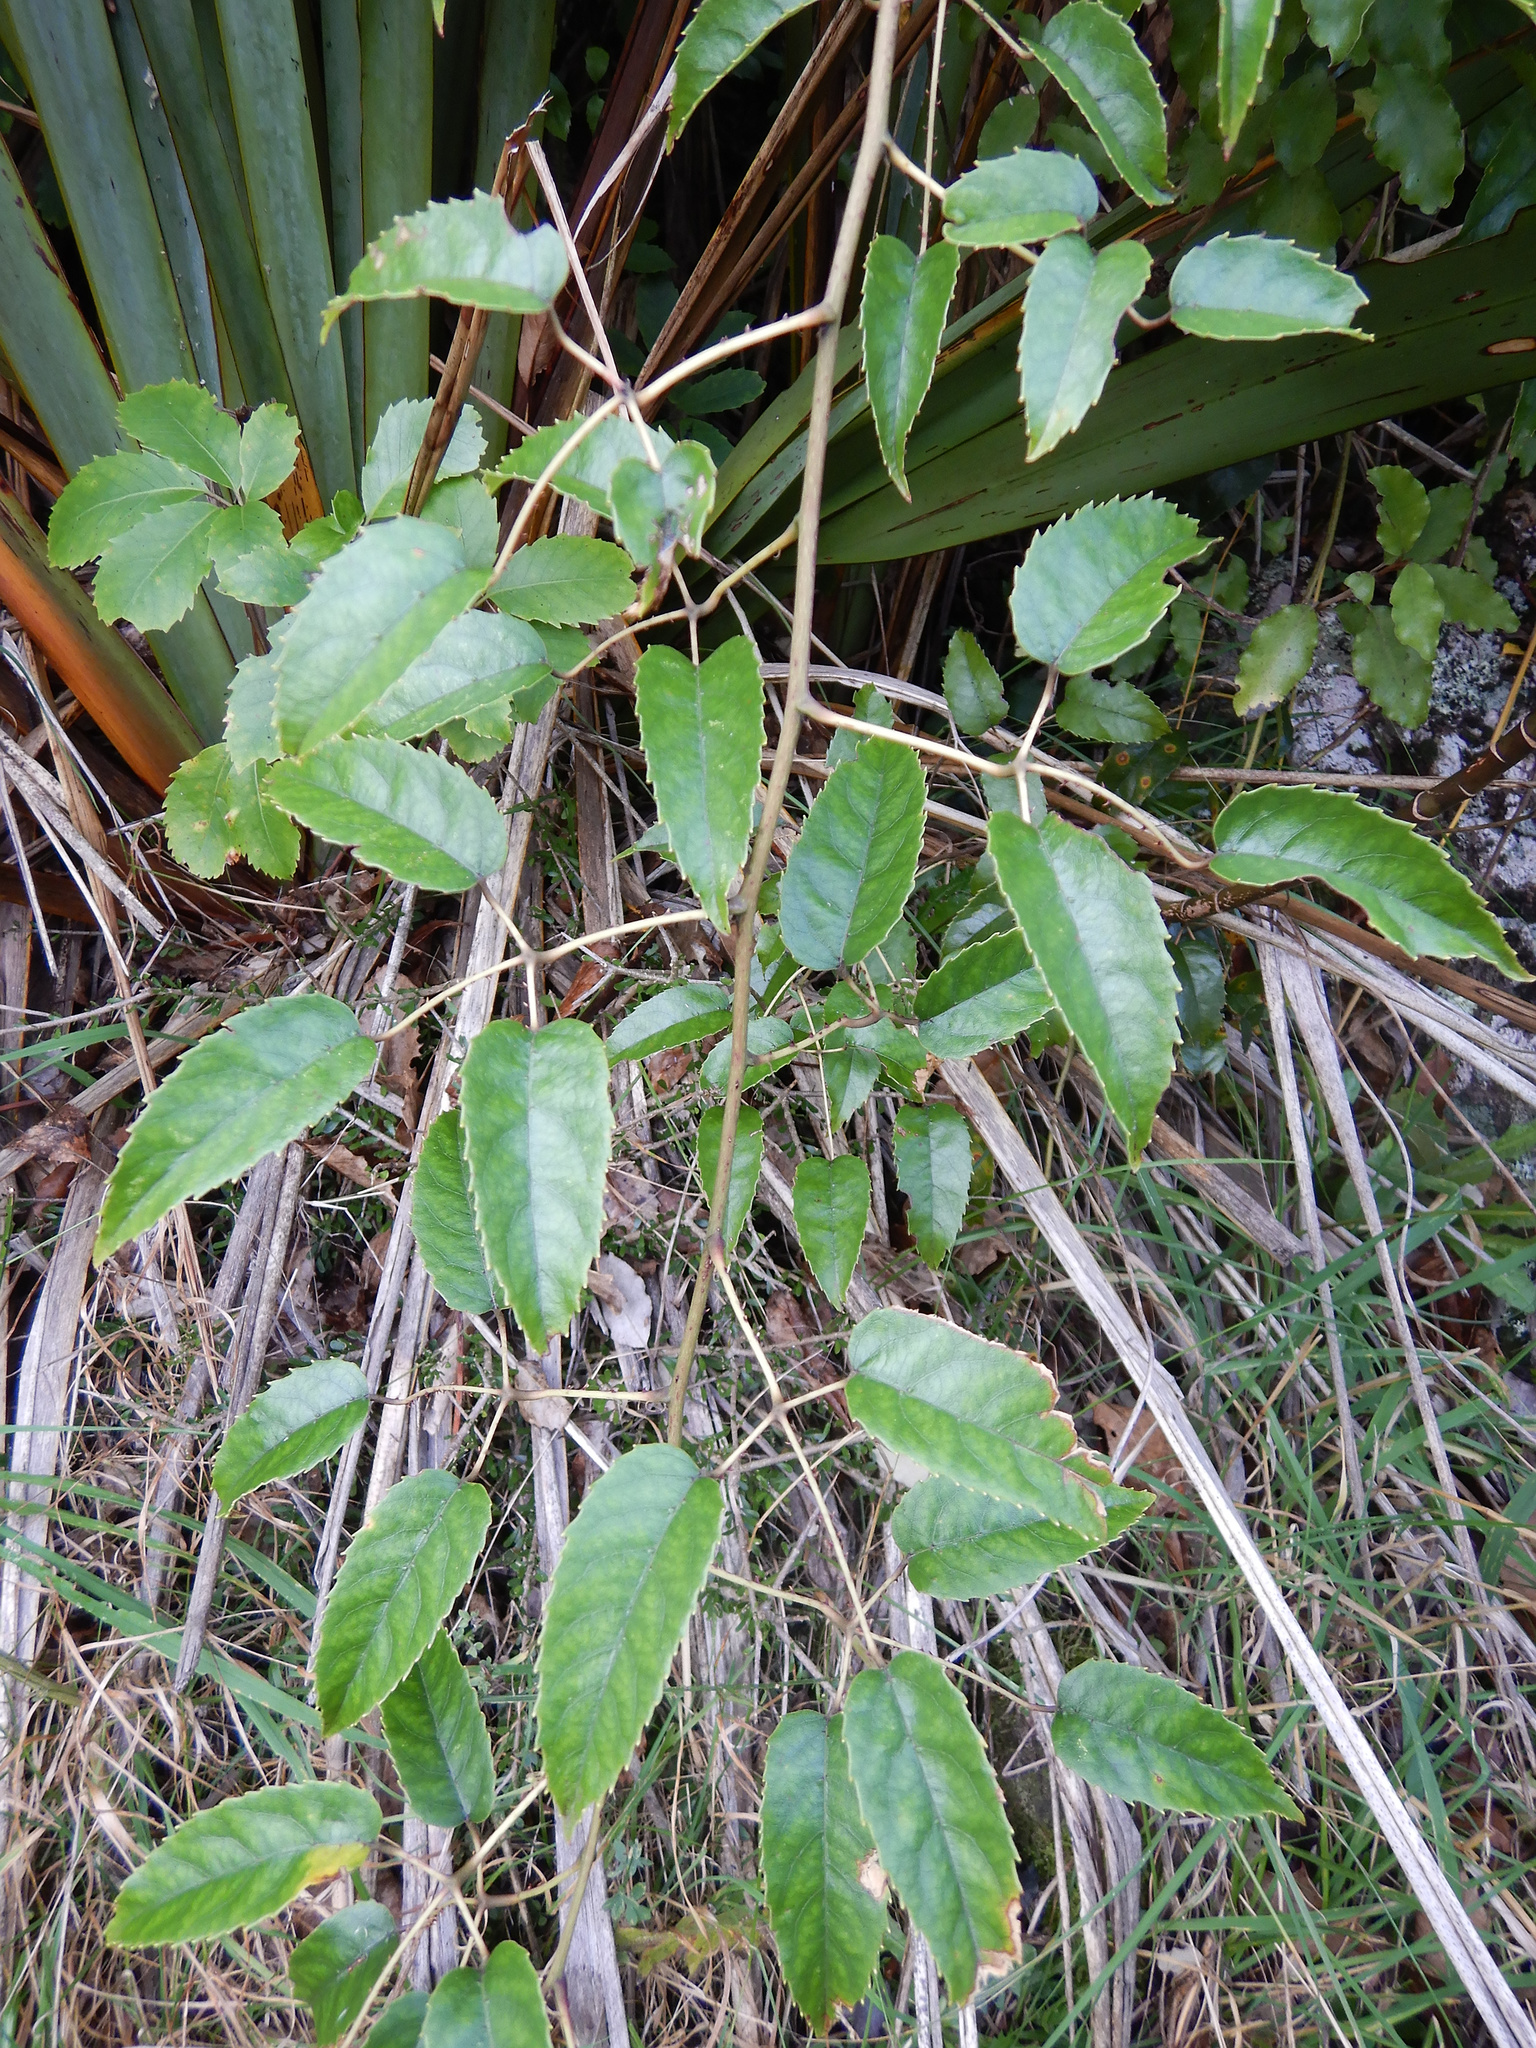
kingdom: Plantae
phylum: Tracheophyta
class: Magnoliopsida
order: Rosales
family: Rosaceae
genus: Rubus
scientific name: Rubus cissoides
